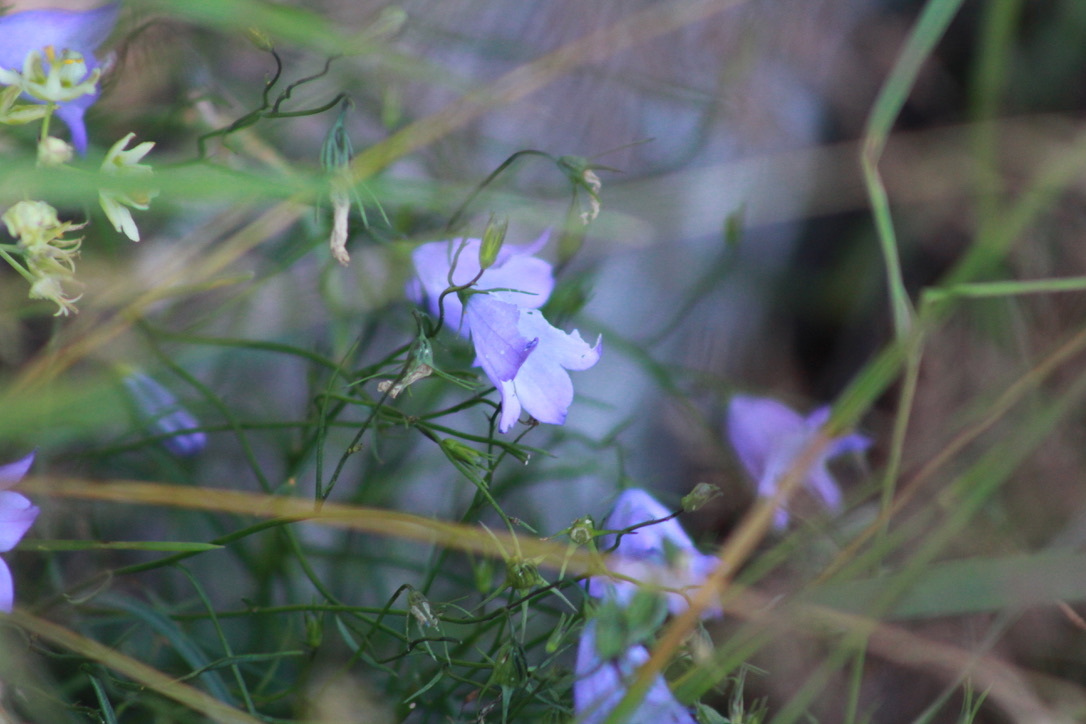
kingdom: Plantae
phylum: Tracheophyta
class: Magnoliopsida
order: Asterales
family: Campanulaceae
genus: Campanula
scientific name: Campanula intercedens
